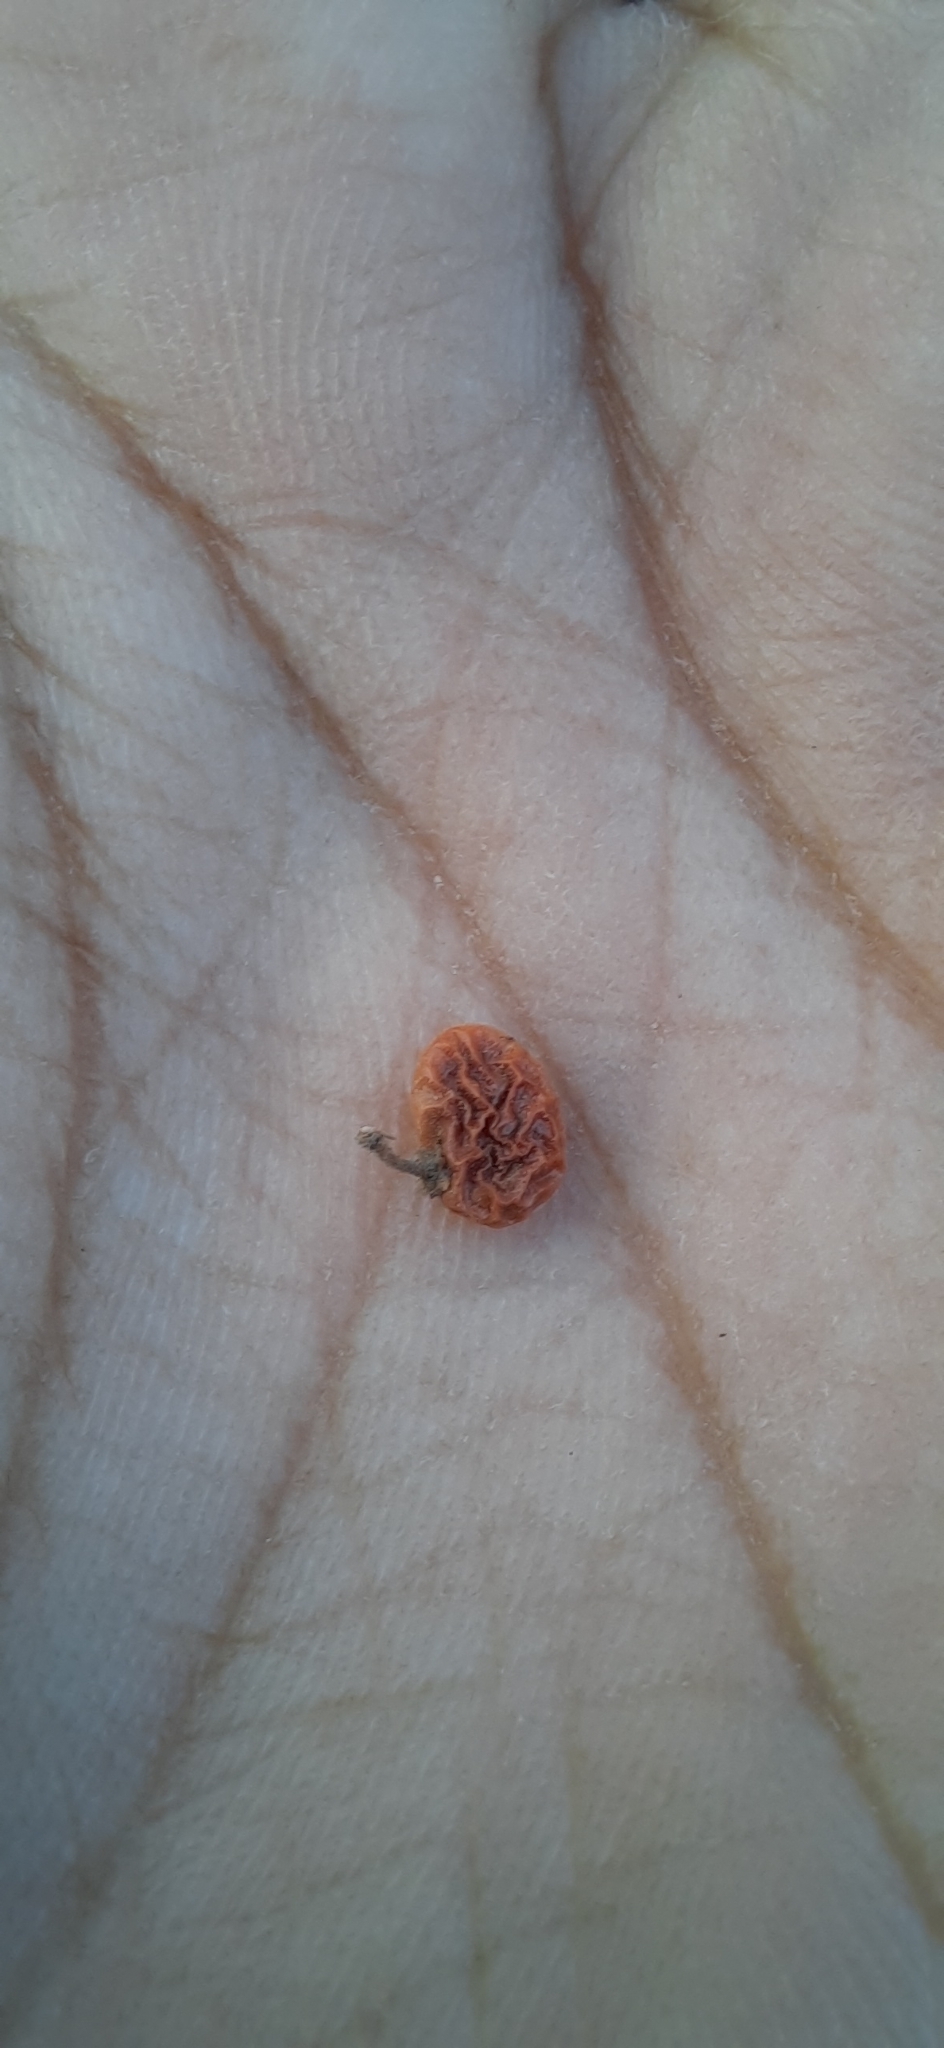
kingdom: Plantae
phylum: Tracheophyta
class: Magnoliopsida
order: Sapindales
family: Anacardiaceae
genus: Searsia
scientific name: Searsia mysorensis
